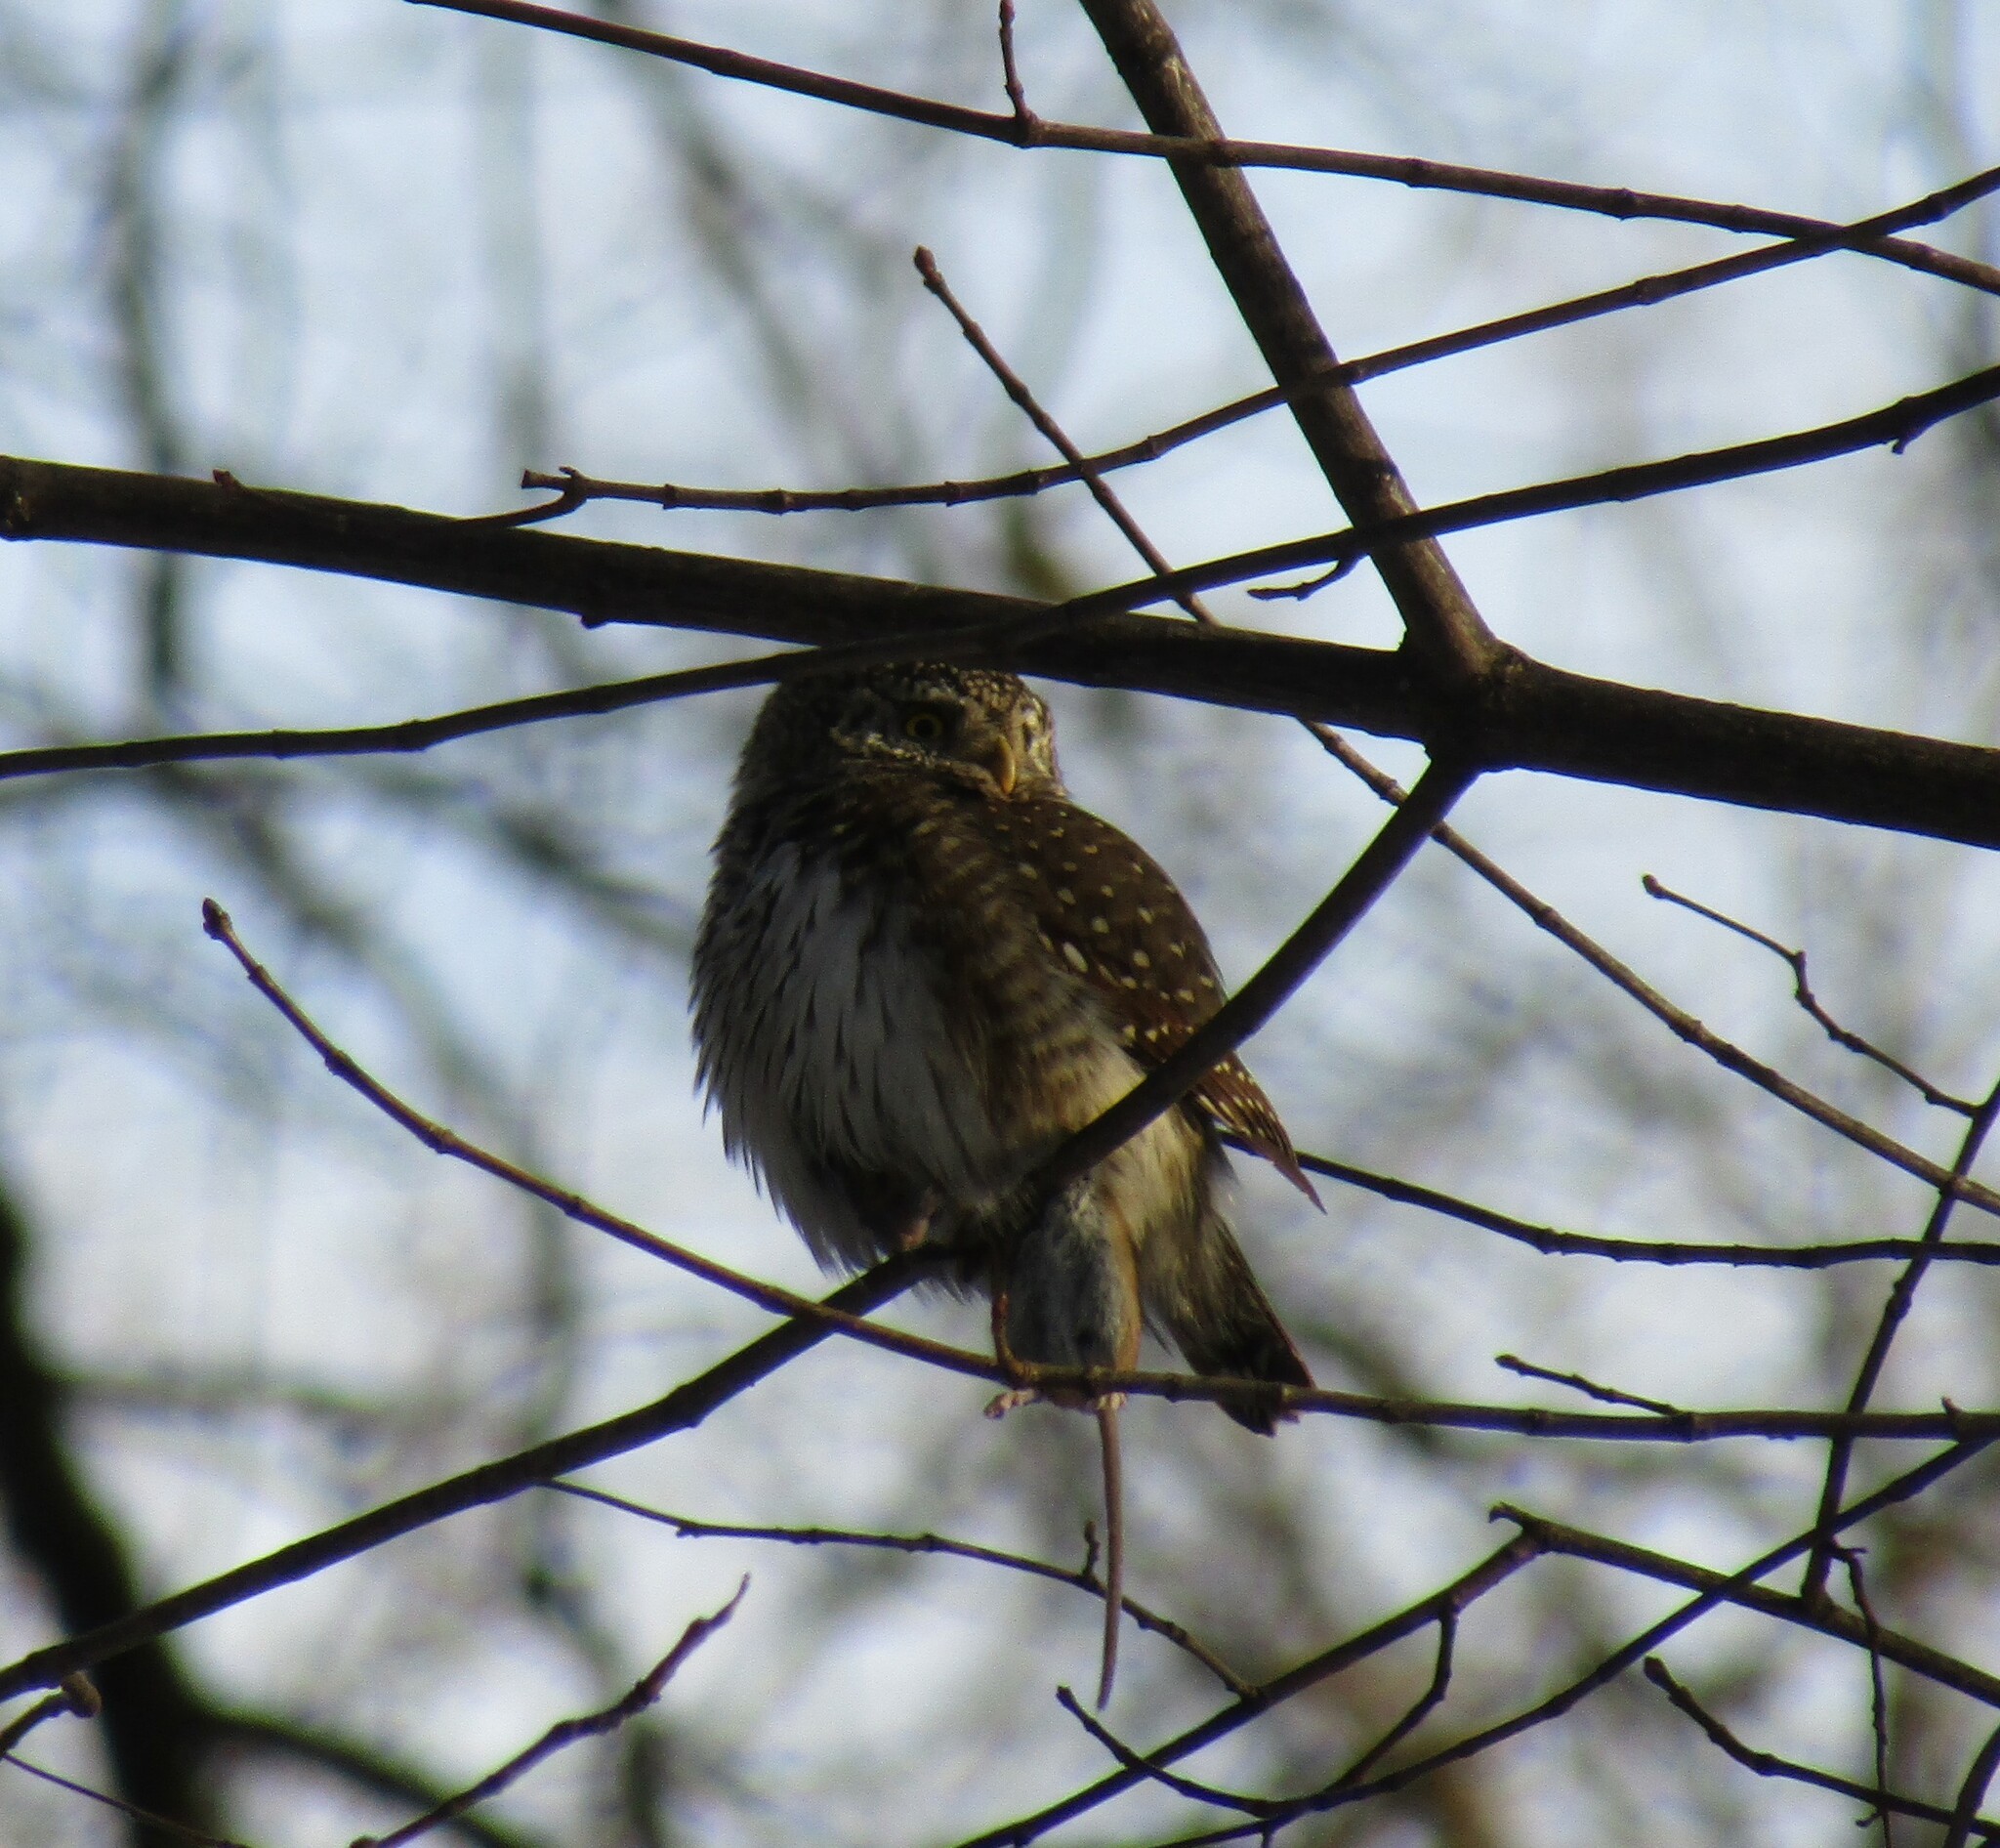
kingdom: Animalia
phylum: Chordata
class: Aves
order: Strigiformes
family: Strigidae
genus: Glaucidium
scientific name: Glaucidium passerinum
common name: Eurasian pygmy owl
